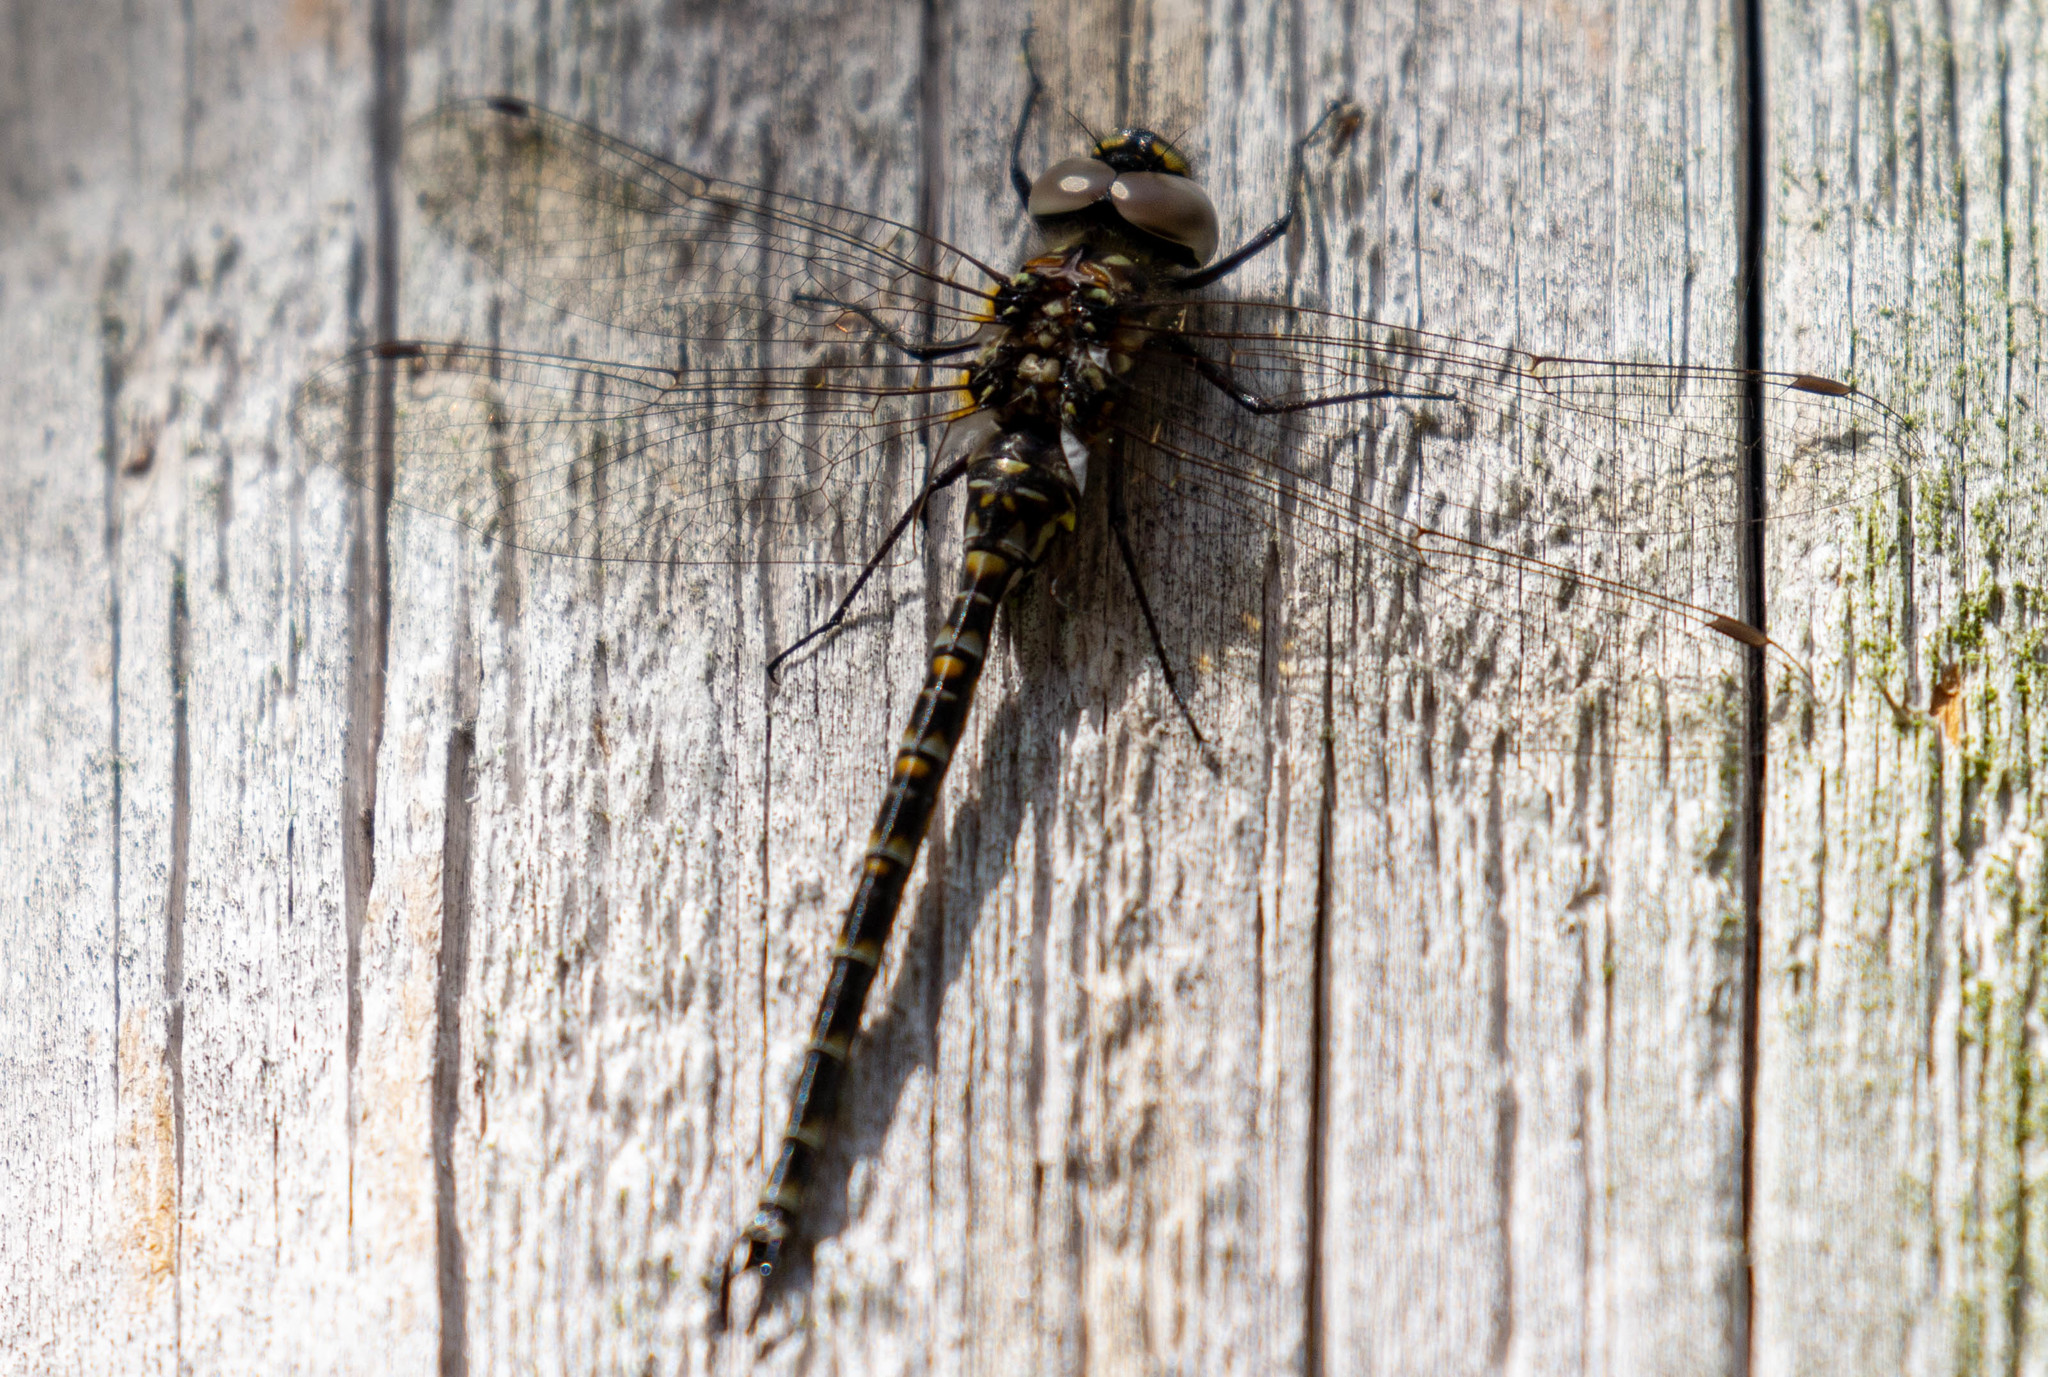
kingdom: Animalia
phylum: Arthropoda
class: Insecta
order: Odonata
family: Aeshnidae
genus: Gomphaeschna
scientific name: Gomphaeschna furcillata
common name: Harlequin darner
